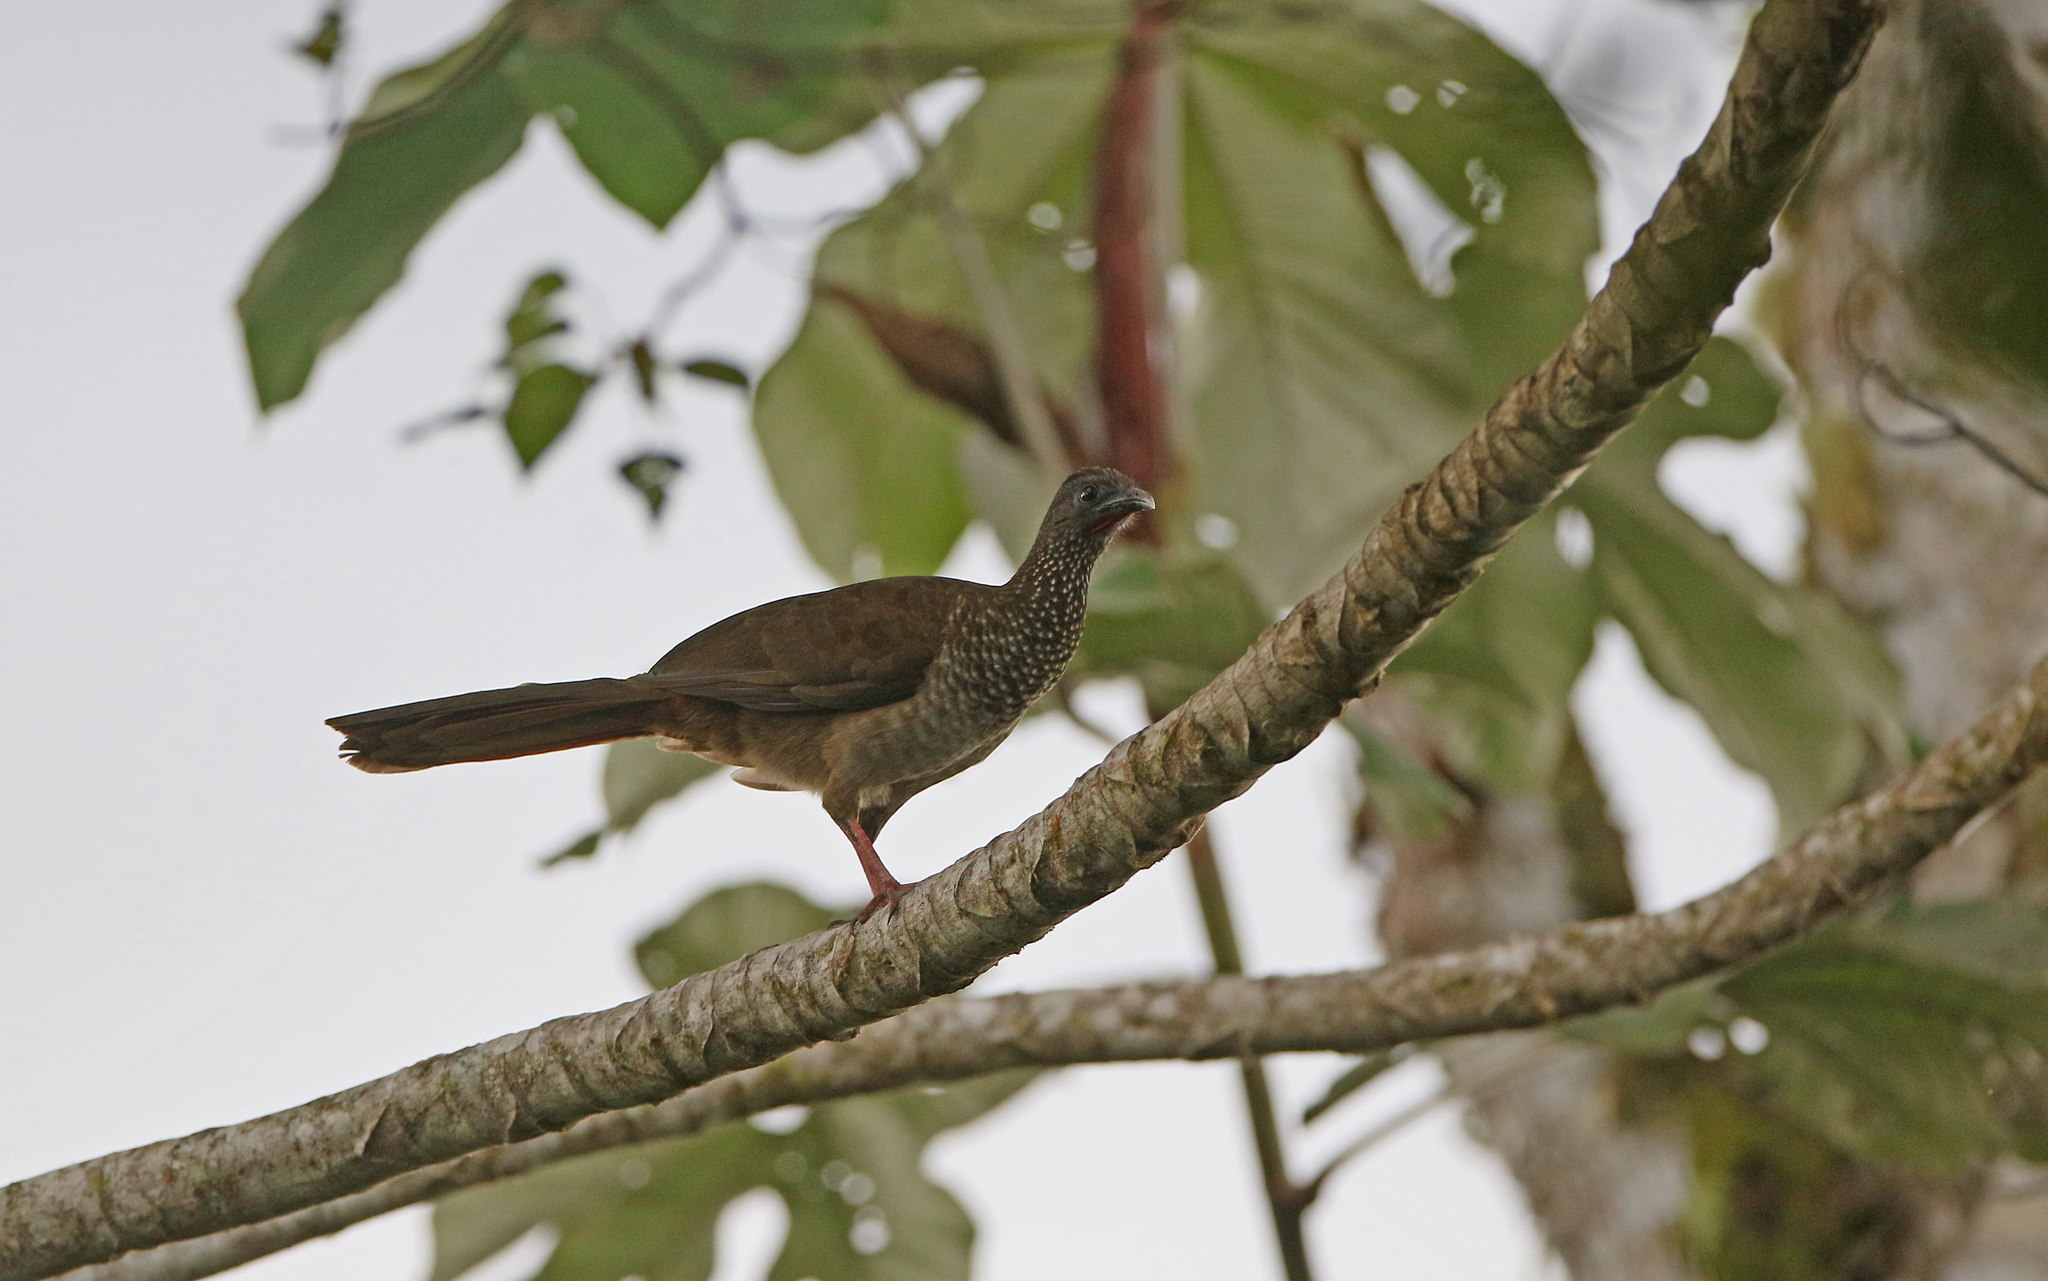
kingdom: Animalia
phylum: Chordata
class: Aves
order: Galliformes
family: Cracidae
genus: Ortalis
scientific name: Ortalis guttata
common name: Speckled chachalaca
